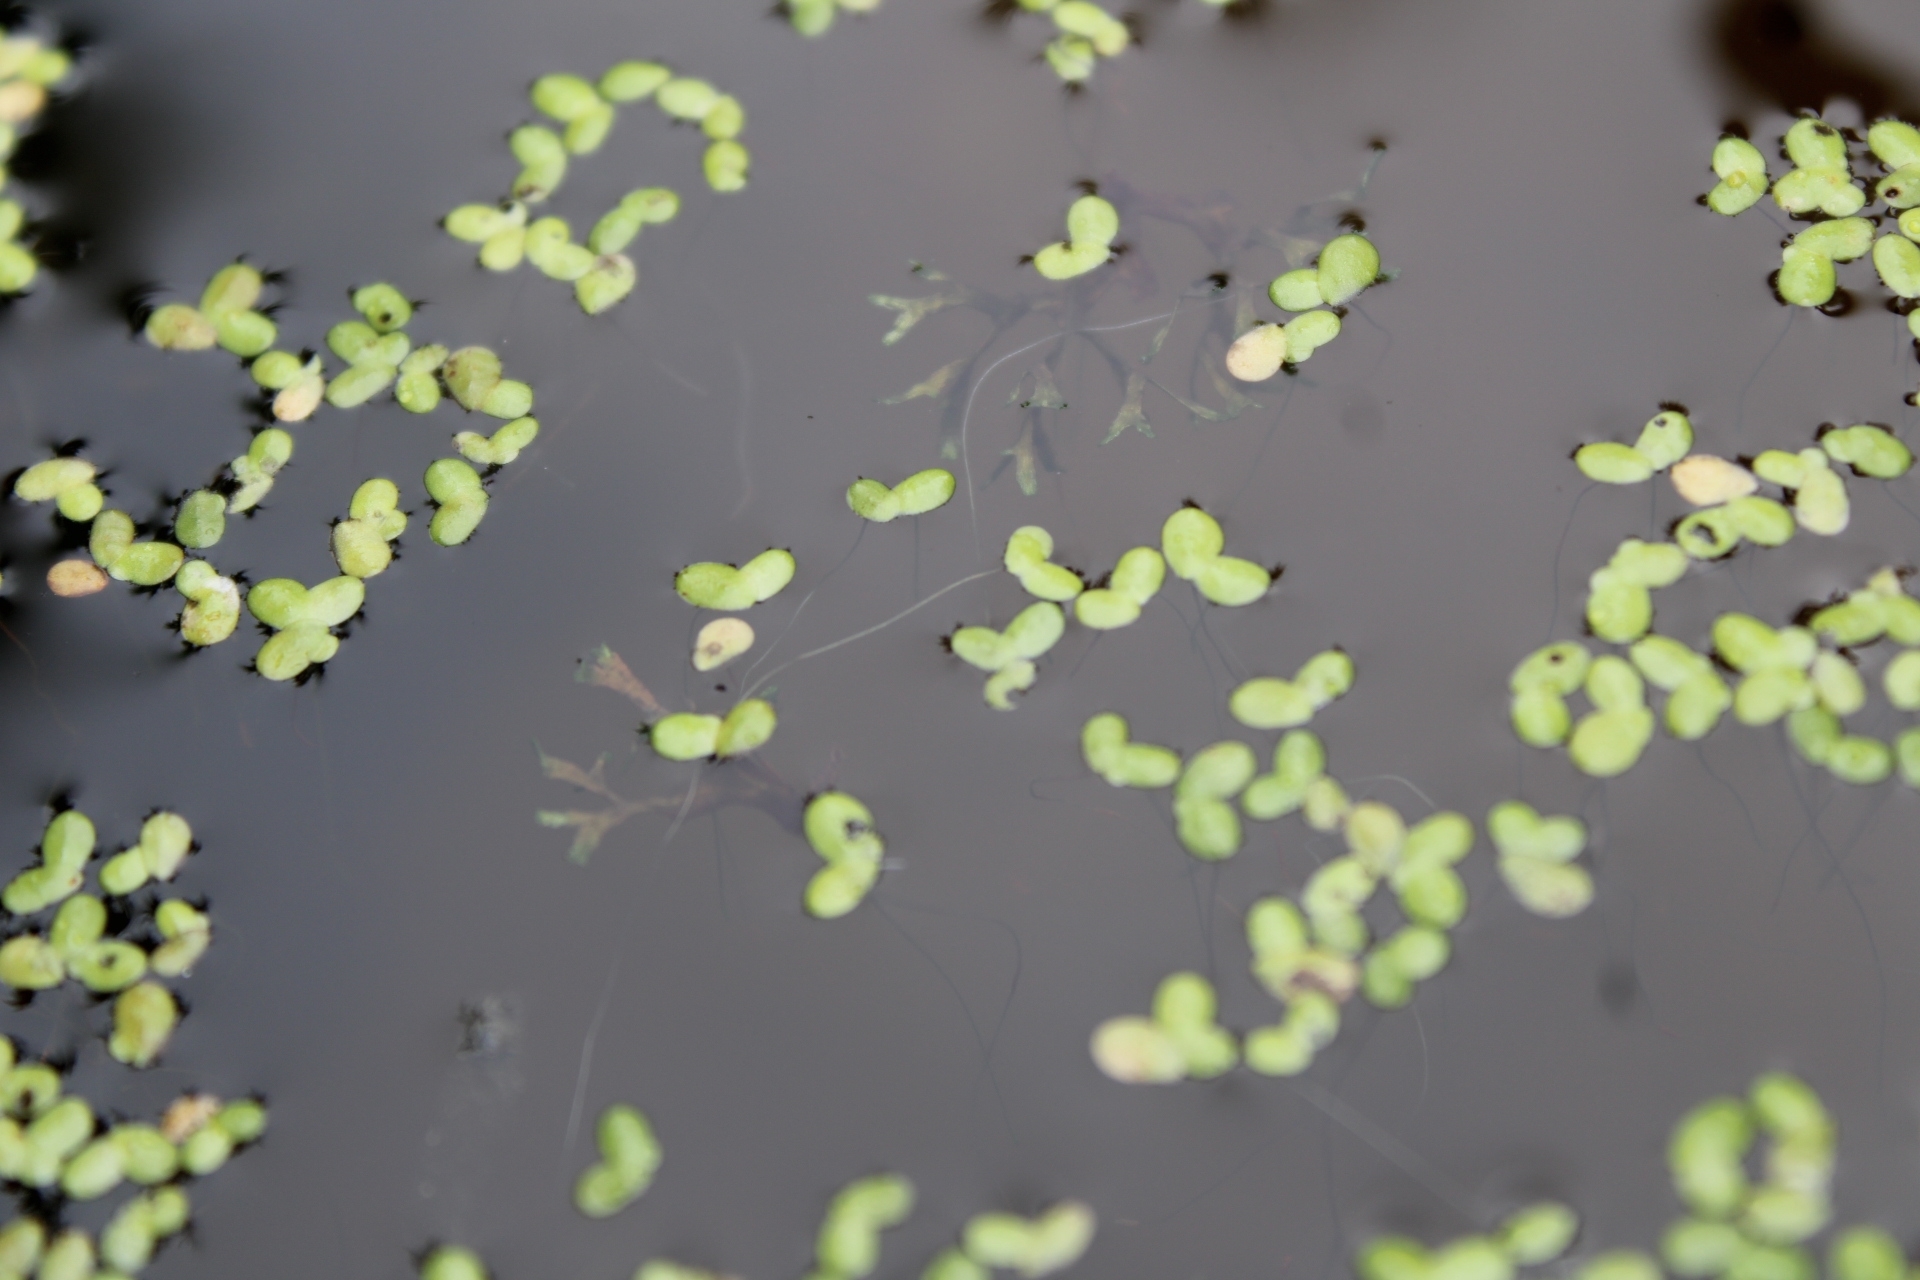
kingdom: Plantae
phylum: Tracheophyta
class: Liliopsida
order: Alismatales
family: Araceae
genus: Lemna
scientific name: Lemna minor
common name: Common duckweed
